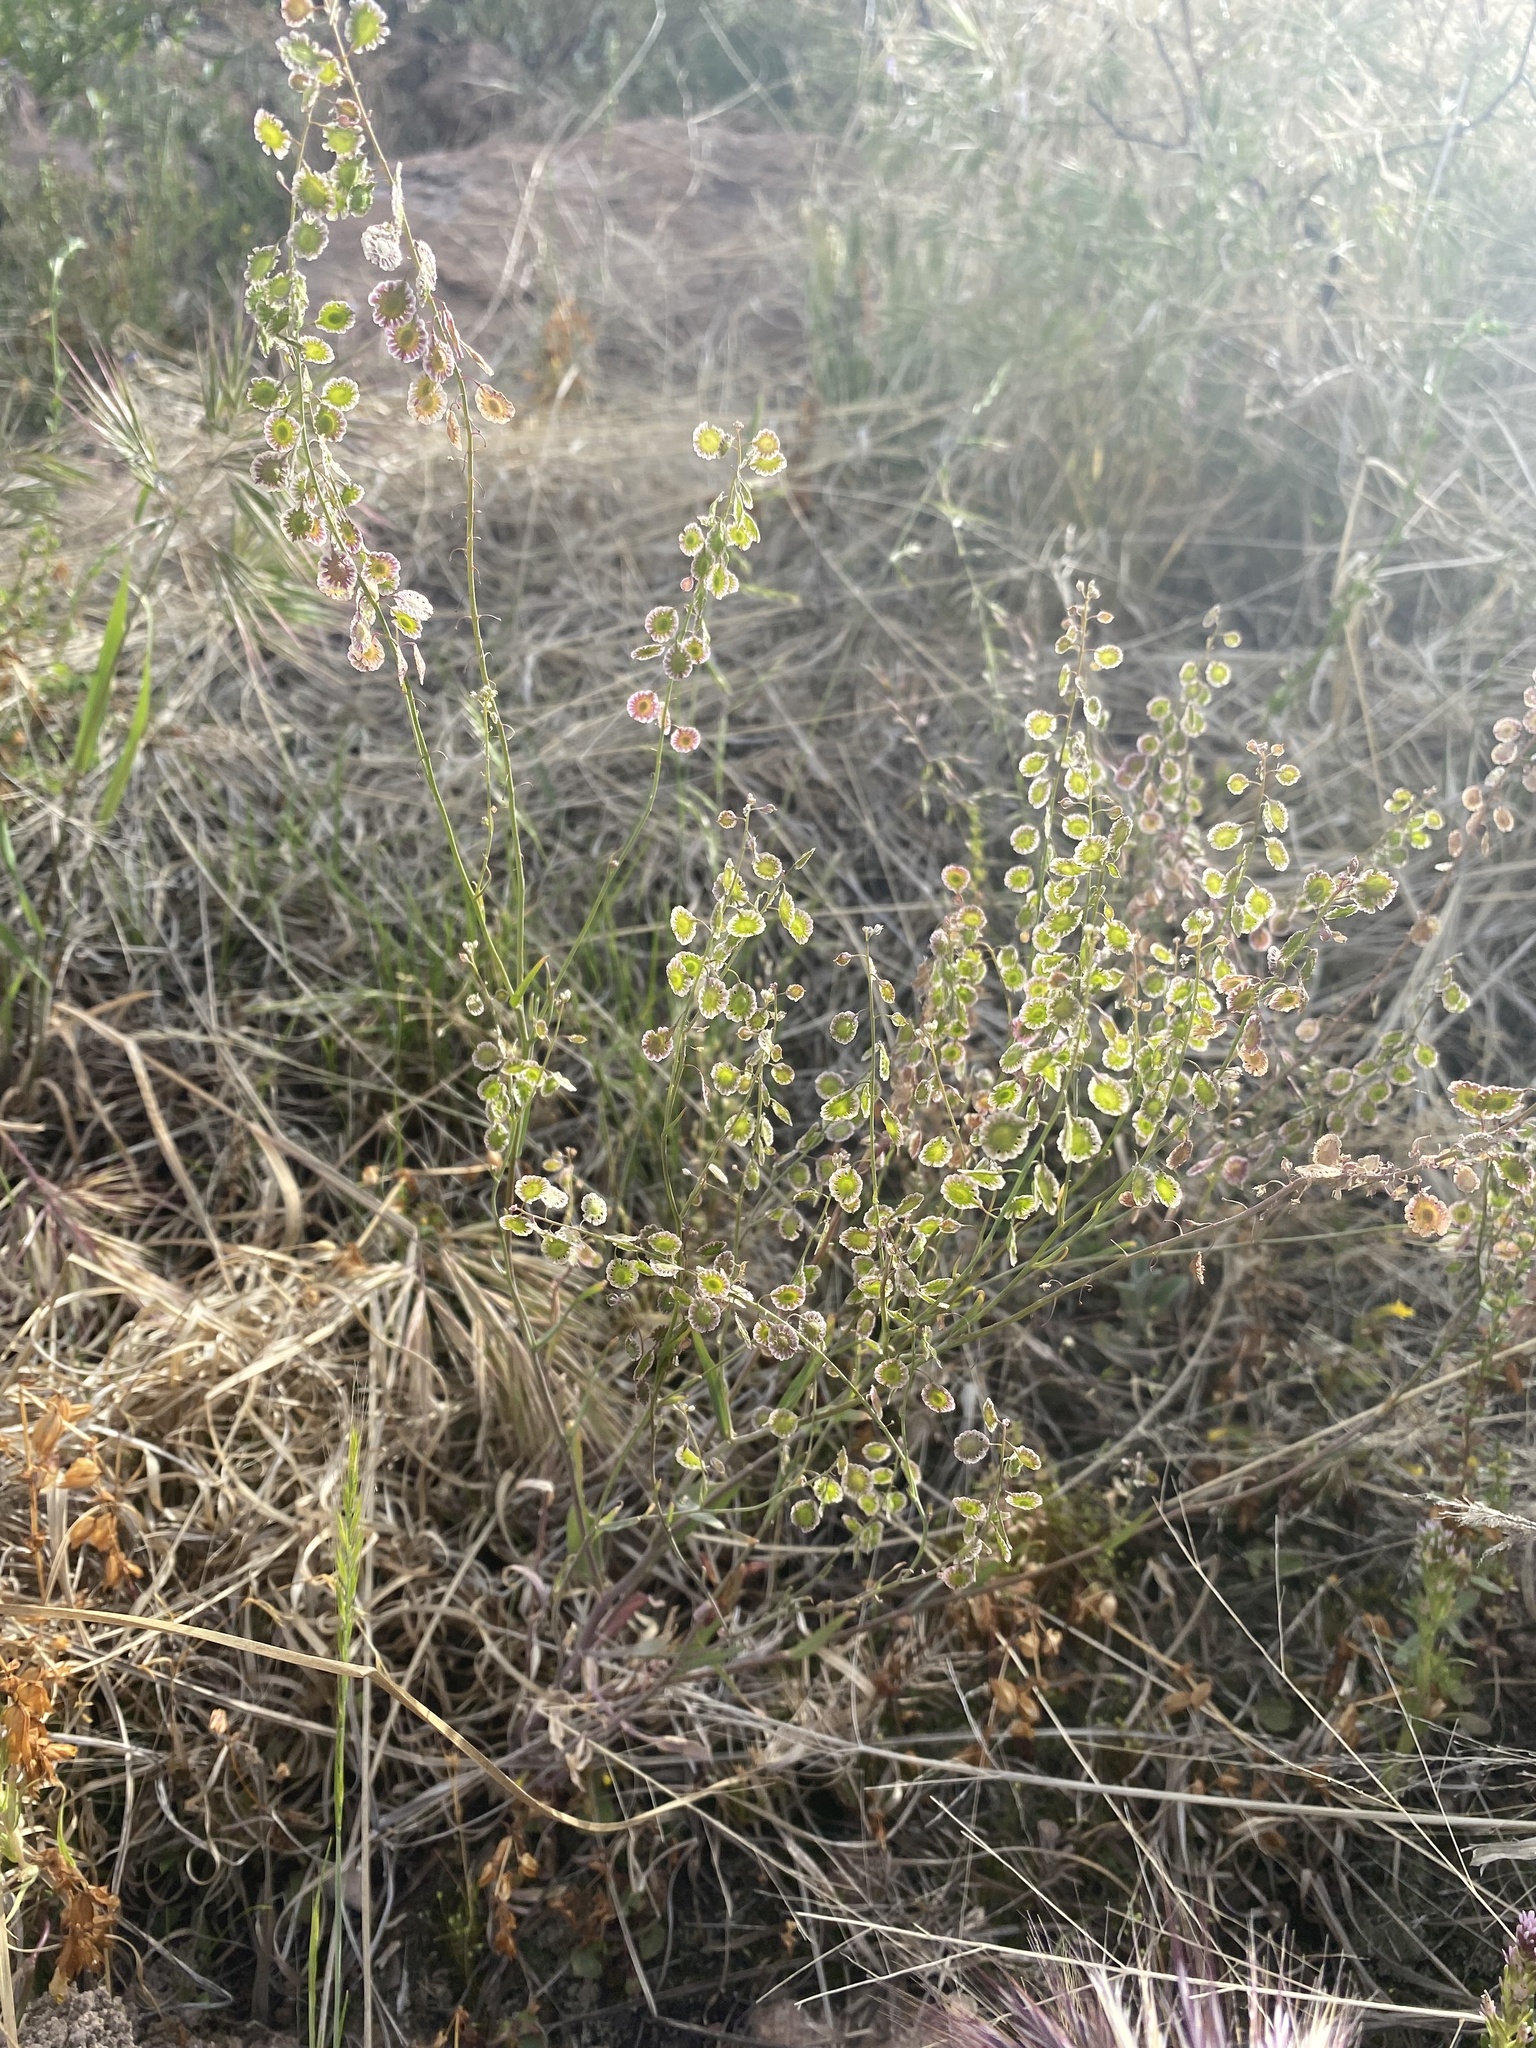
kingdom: Plantae
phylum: Tracheophyta
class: Magnoliopsida
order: Brassicales
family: Brassicaceae
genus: Thysanocarpus
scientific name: Thysanocarpus curvipes
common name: Sand fringepod
